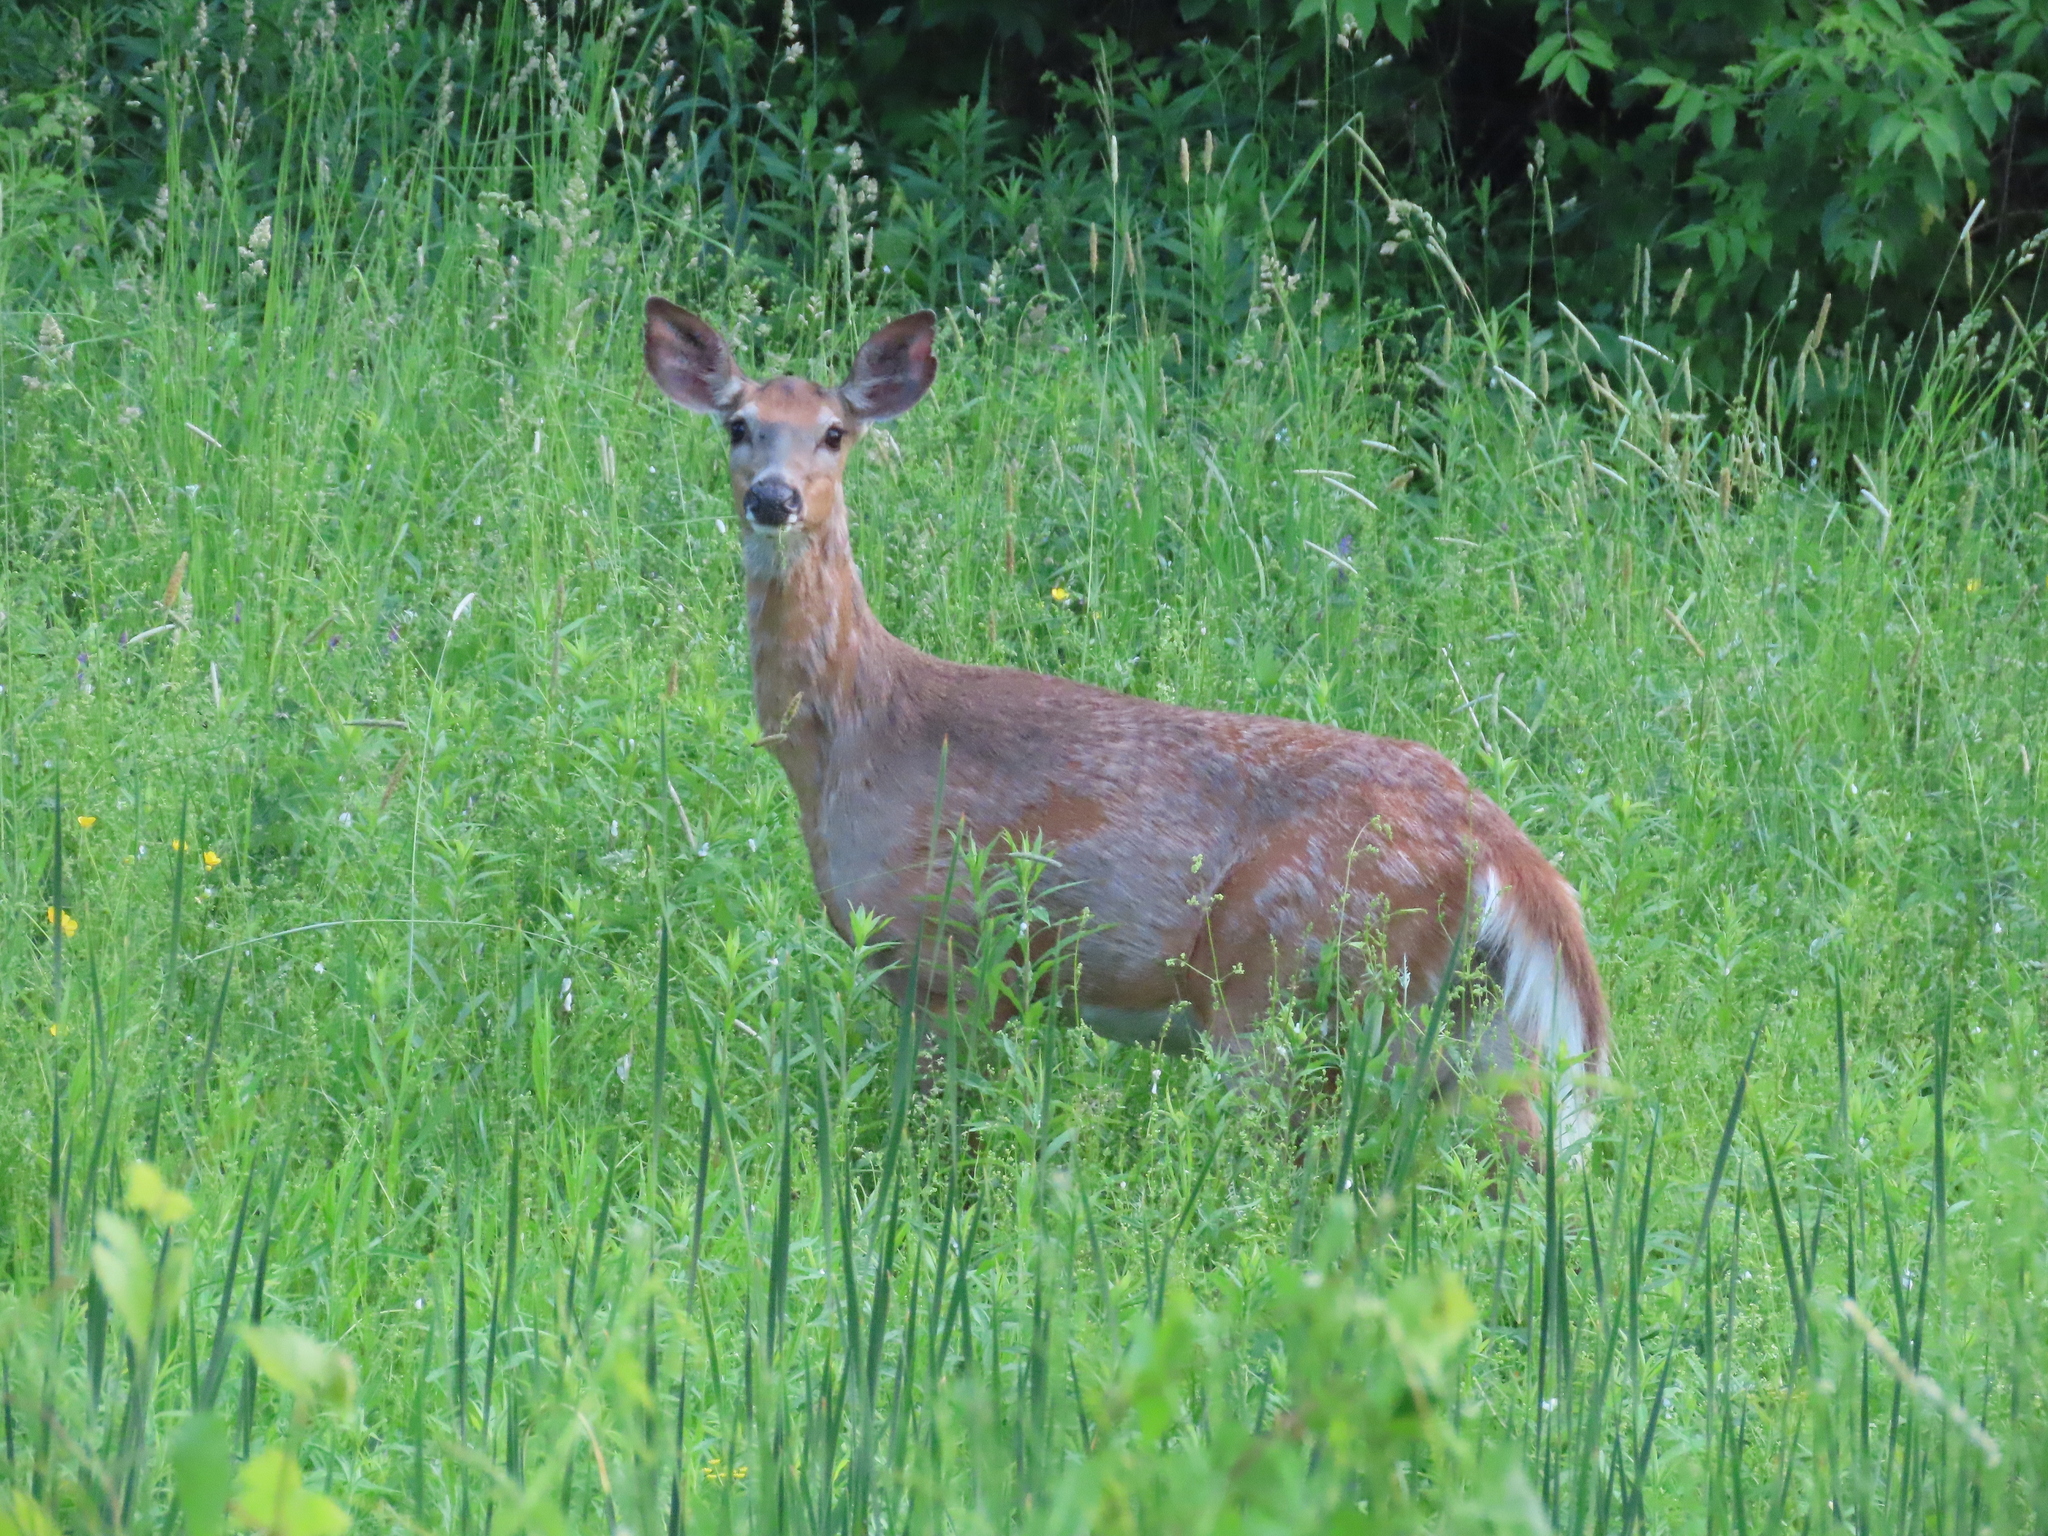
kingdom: Animalia
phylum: Chordata
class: Mammalia
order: Artiodactyla
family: Cervidae
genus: Odocoileus
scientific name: Odocoileus virginianus
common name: White-tailed deer
